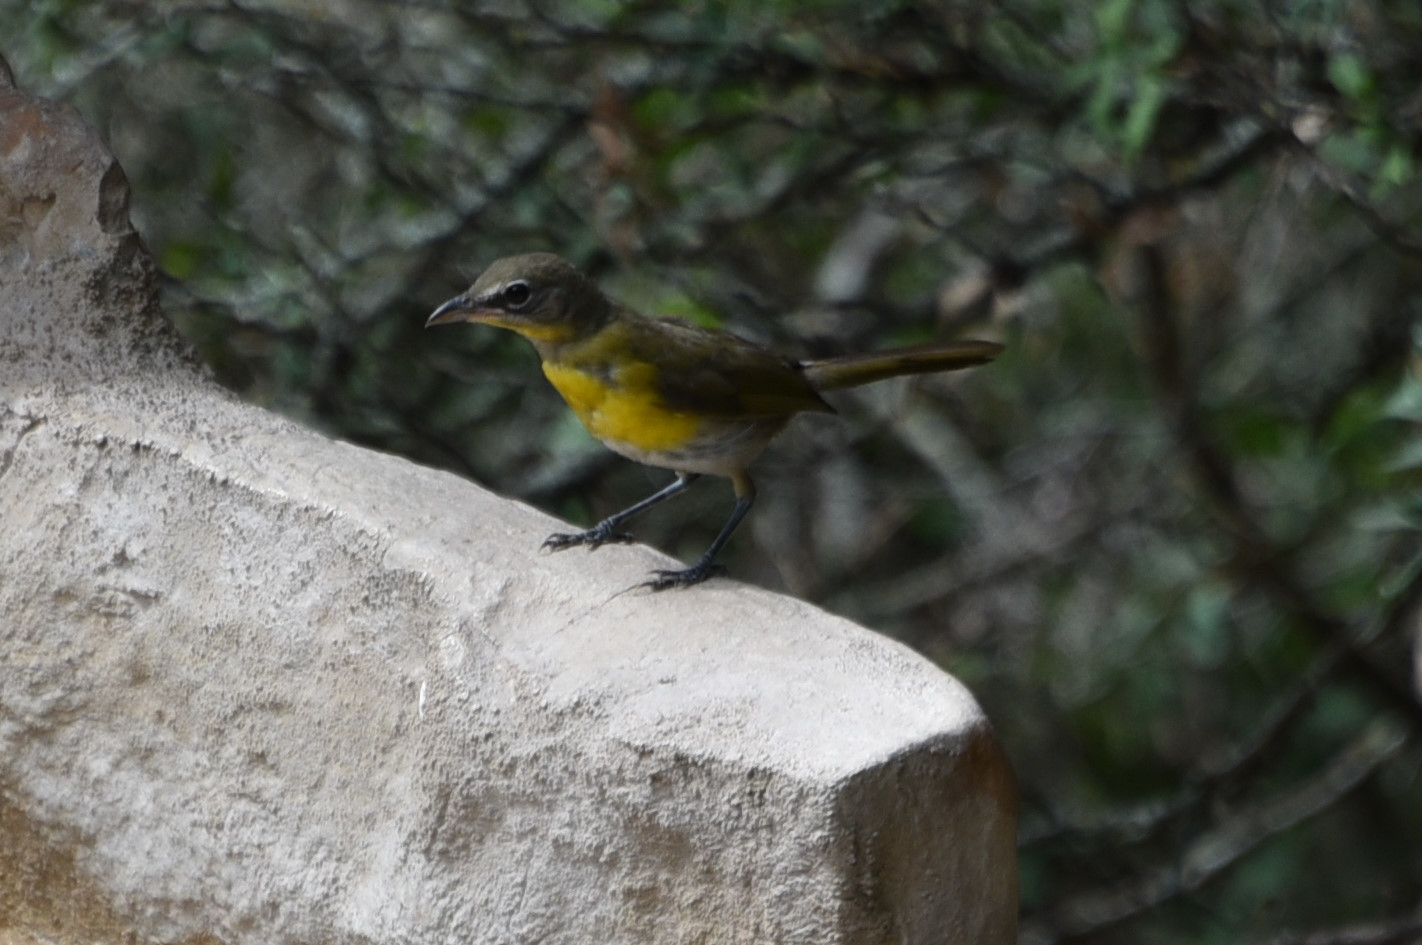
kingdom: Animalia
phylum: Chordata
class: Aves
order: Passeriformes
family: Parulidae
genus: Icteria
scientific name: Icteria virens
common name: Yellow-breasted chat
